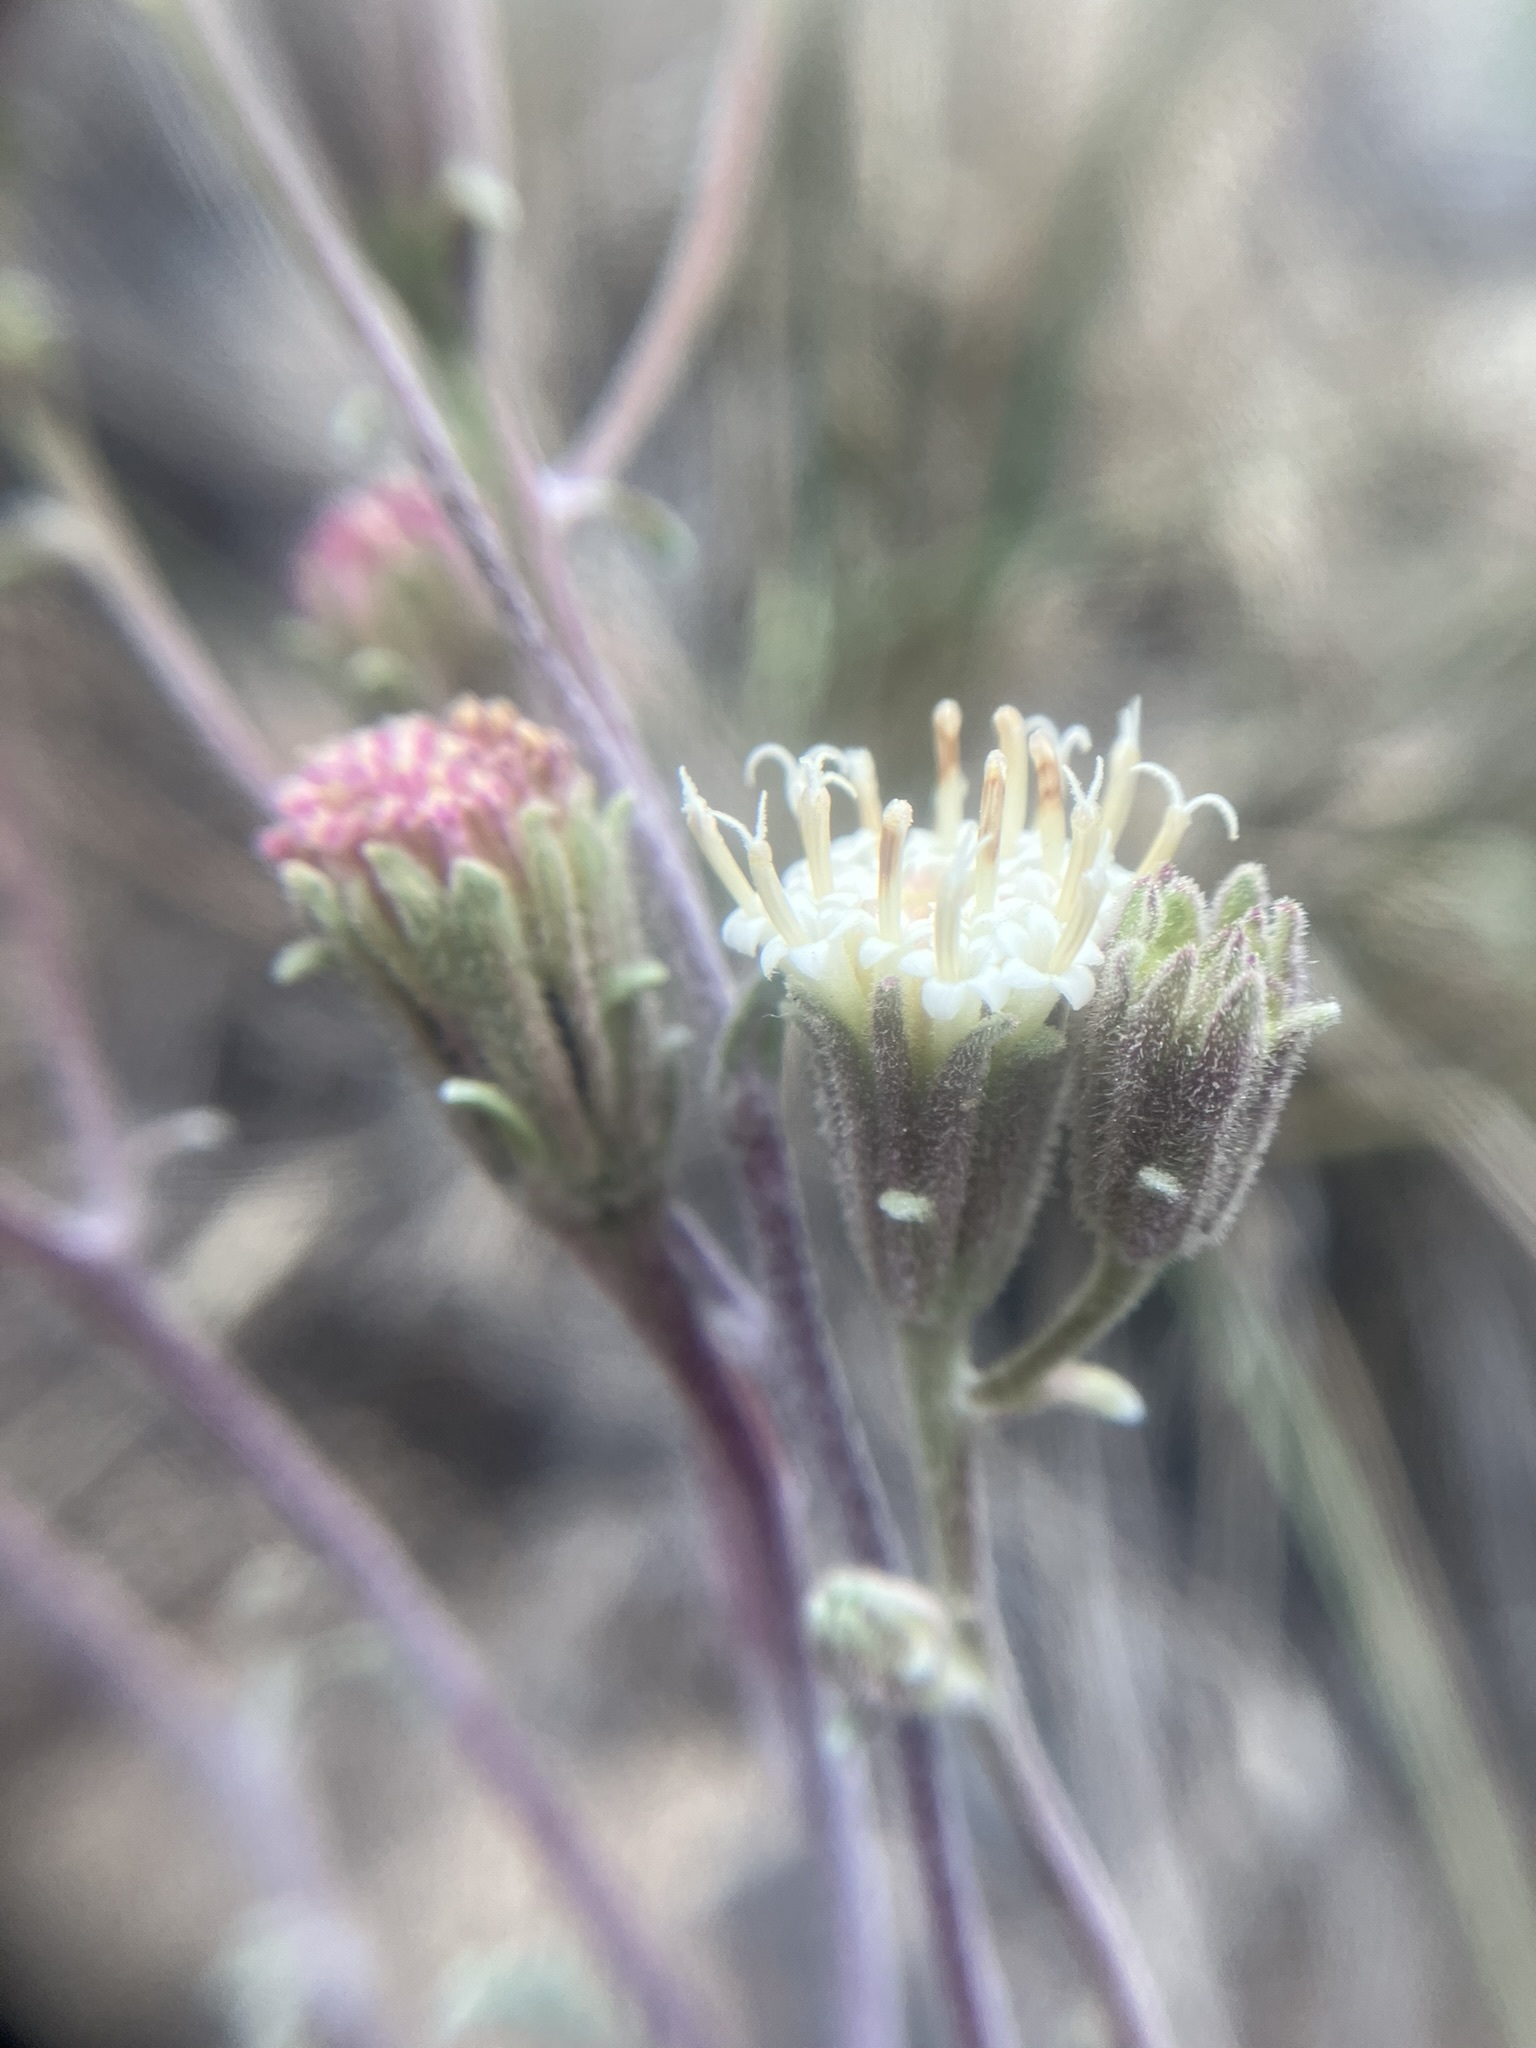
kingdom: Plantae
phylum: Tracheophyta
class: Magnoliopsida
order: Asterales
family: Asteraceae
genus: Chaenactis
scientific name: Chaenactis douglasii
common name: Hoary pincushion
